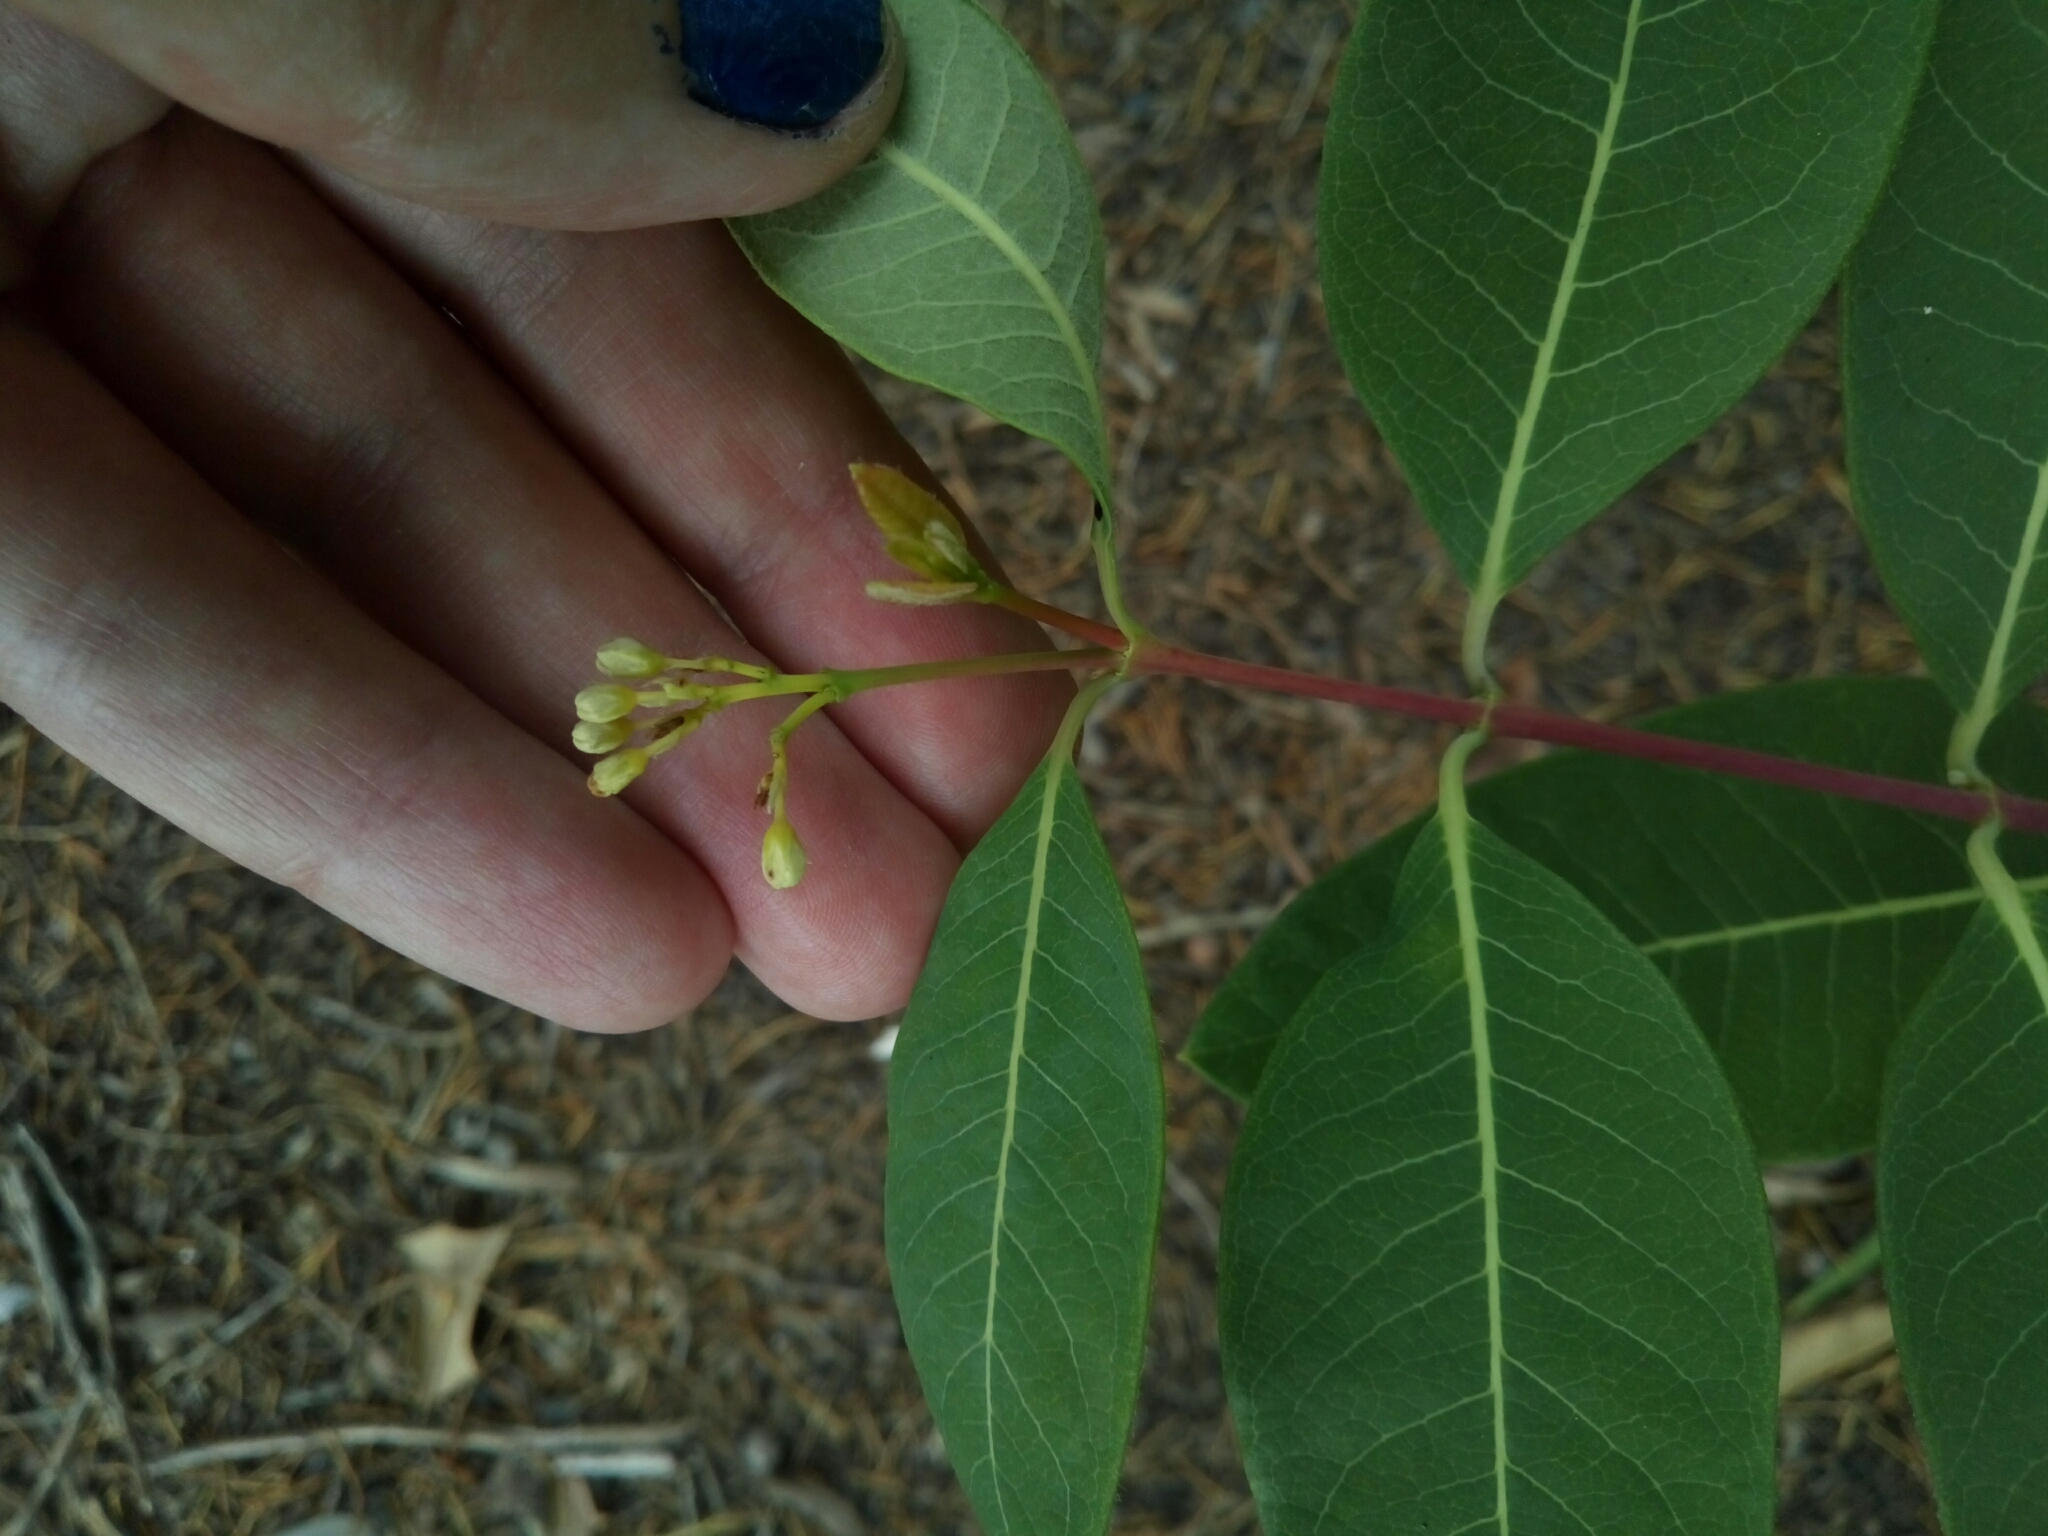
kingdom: Plantae
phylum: Tracheophyta
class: Magnoliopsida
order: Gentianales
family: Apocynaceae
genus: Apocynum
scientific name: Apocynum cannabinum
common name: Hemp dogbane
